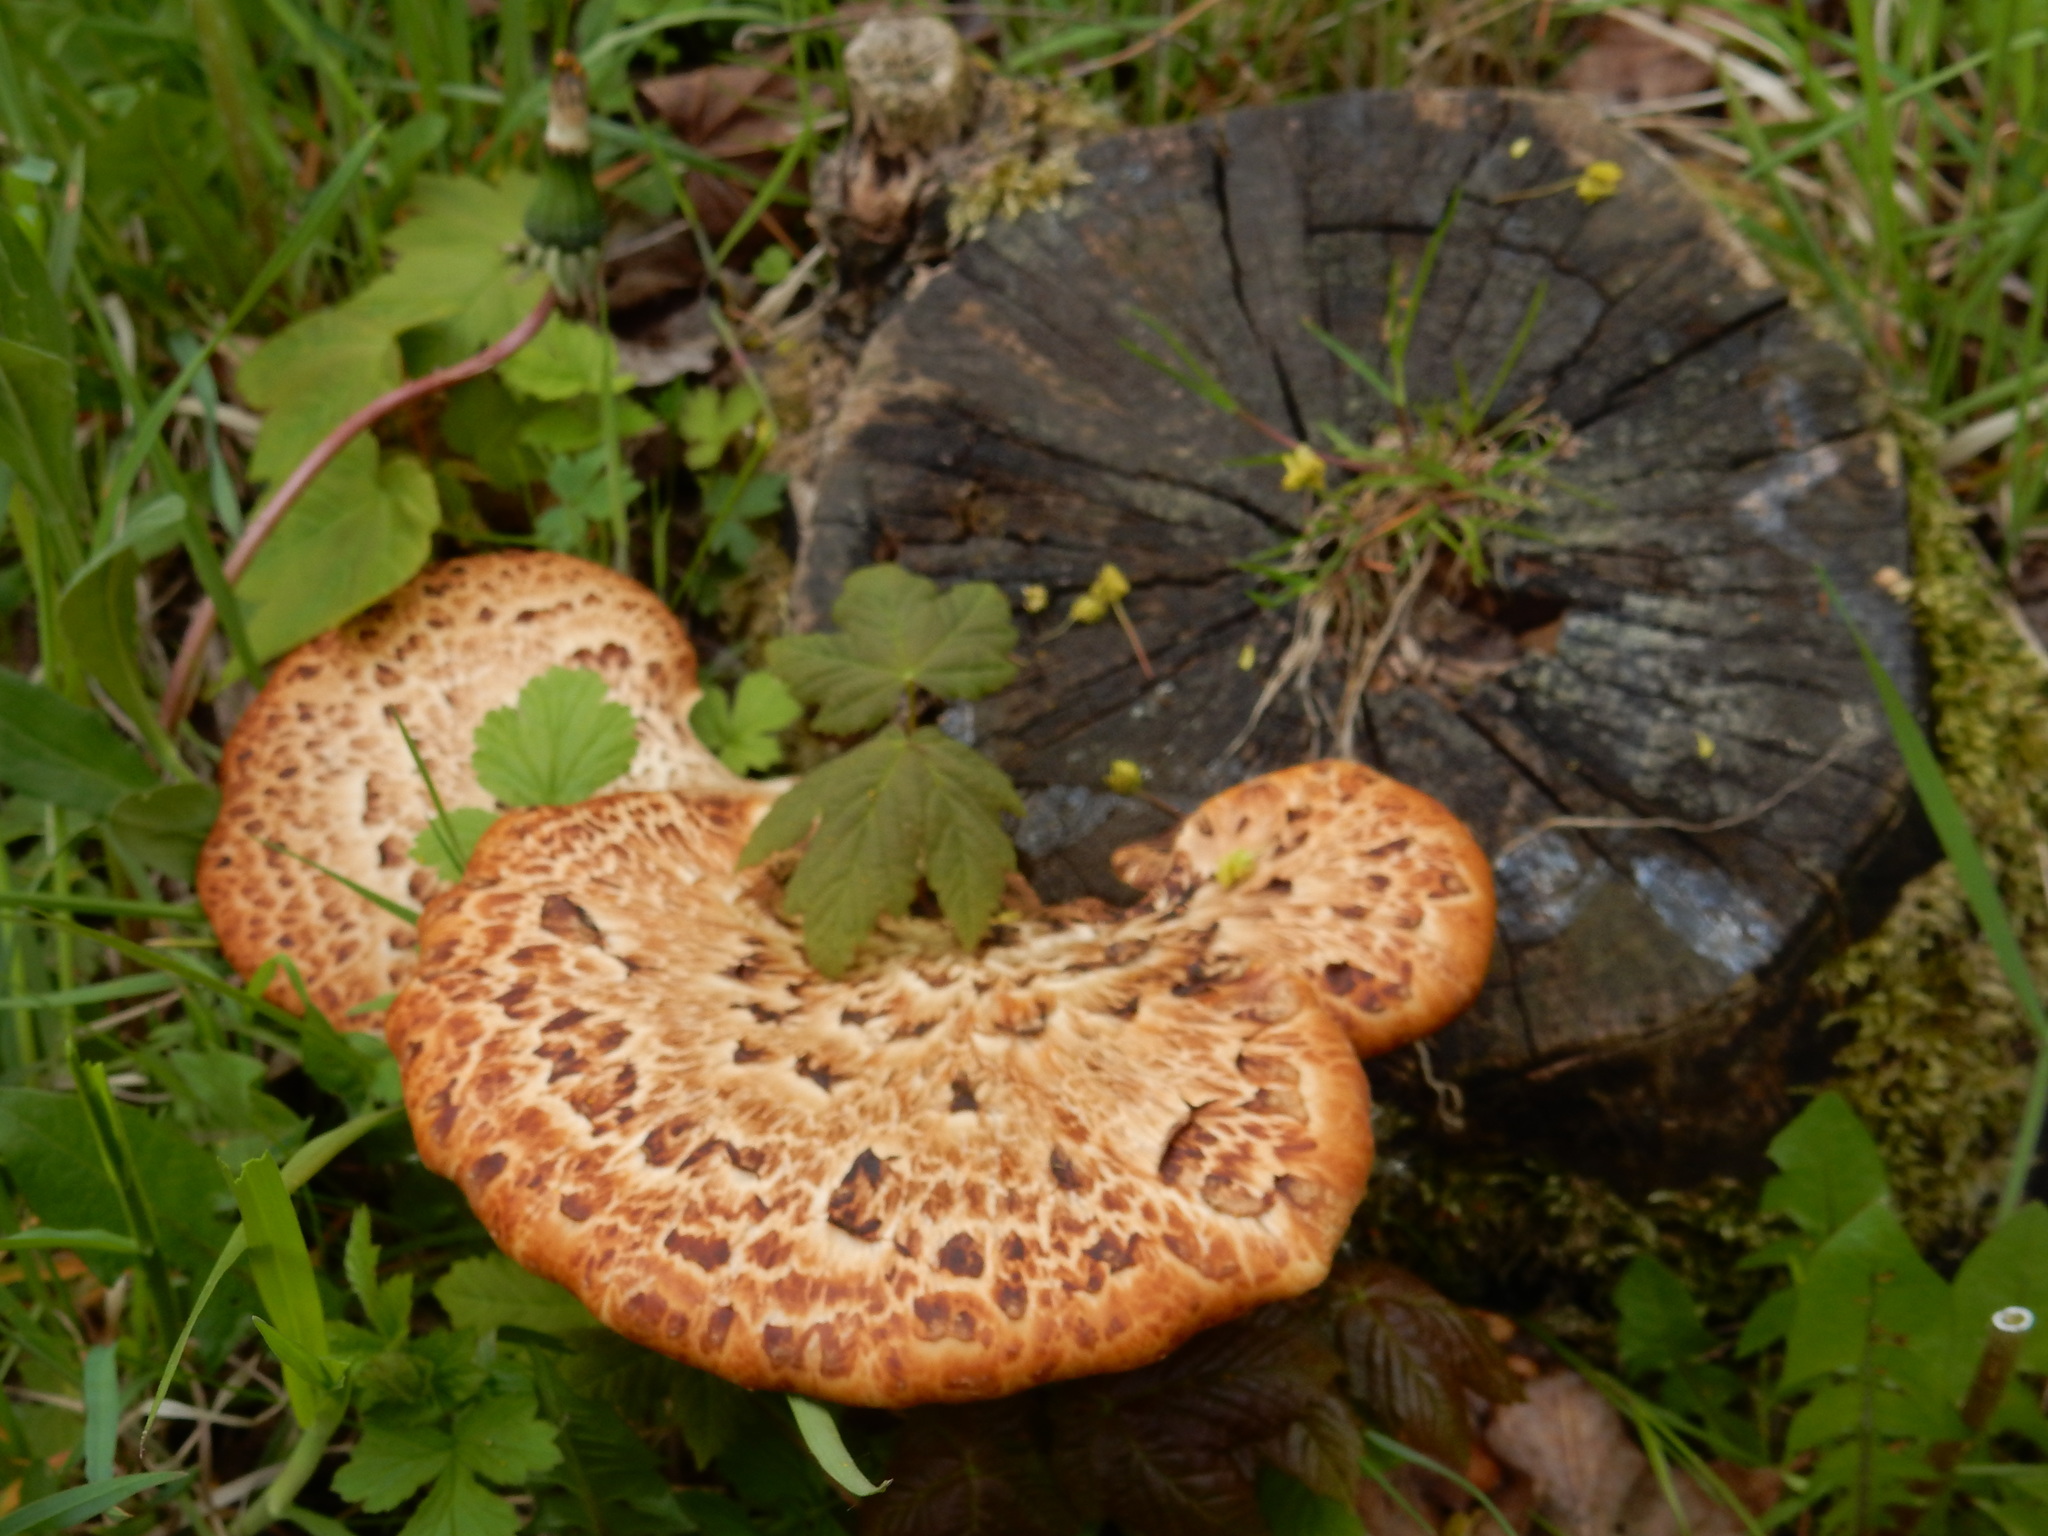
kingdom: Fungi
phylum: Basidiomycota
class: Agaricomycetes
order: Polyporales
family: Polyporaceae
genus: Cerioporus
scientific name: Cerioporus squamosus
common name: Dryad's saddle
